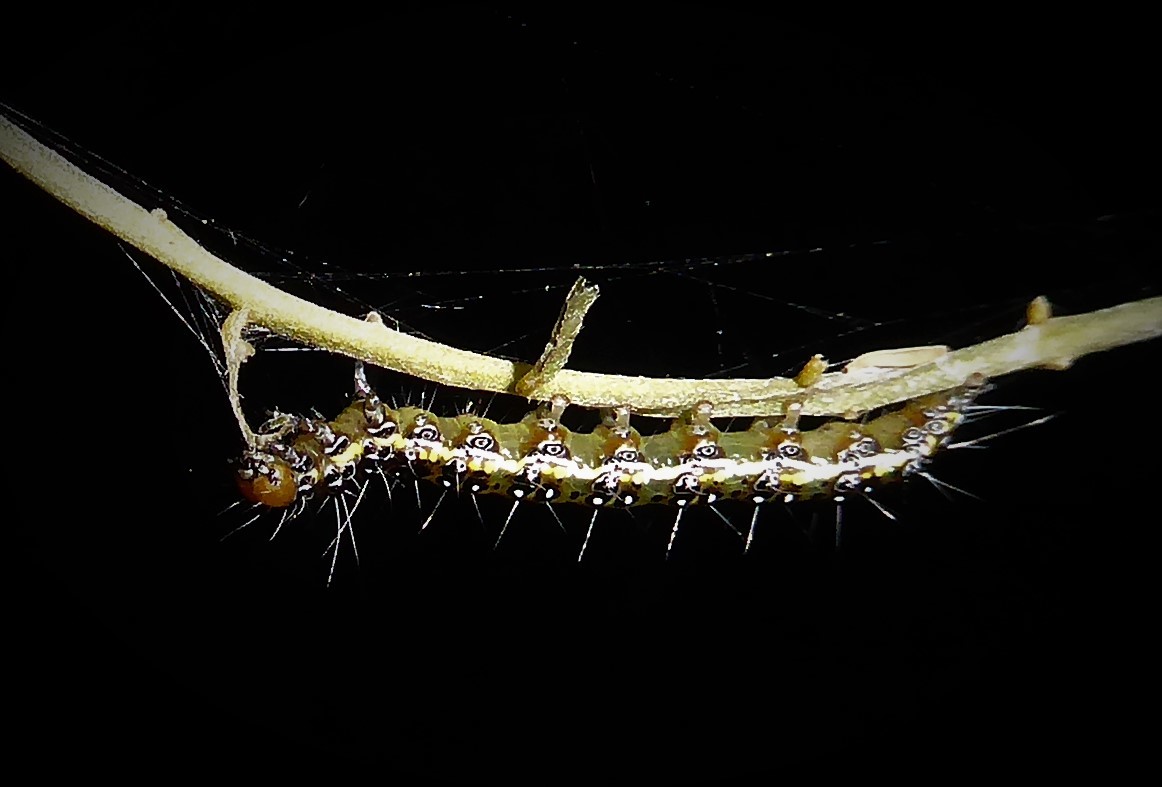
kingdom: Animalia
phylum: Arthropoda
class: Insecta
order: Lepidoptera
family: Crambidae
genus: Uresiphita
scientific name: Uresiphita
